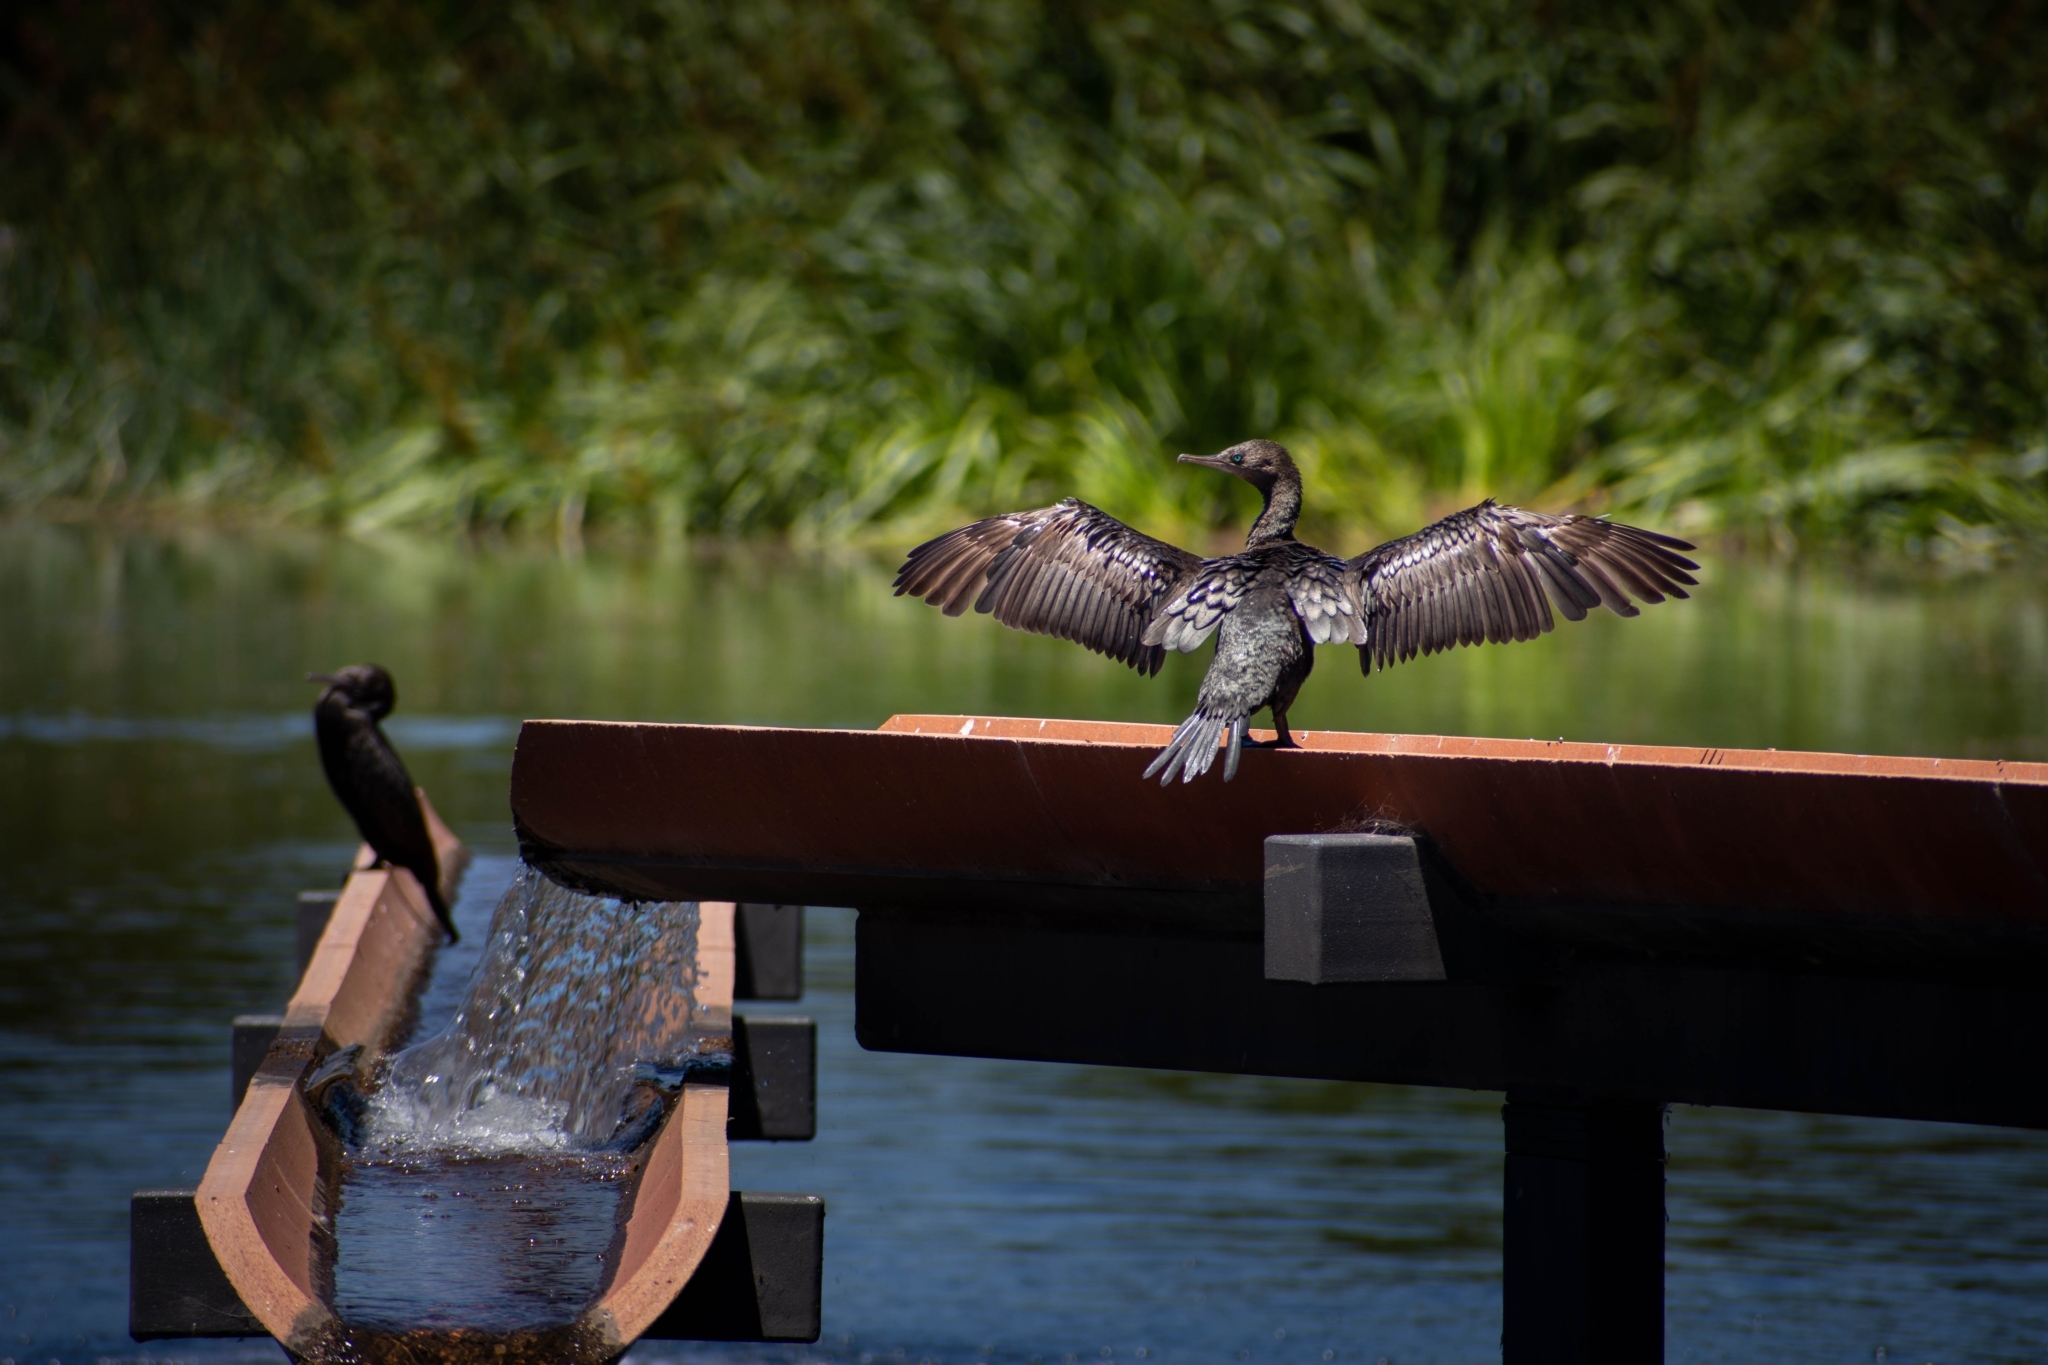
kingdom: Animalia
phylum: Chordata
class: Aves
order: Suliformes
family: Phalacrocoracidae
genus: Phalacrocorax
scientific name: Phalacrocorax sulcirostris
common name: Little black cormorant
